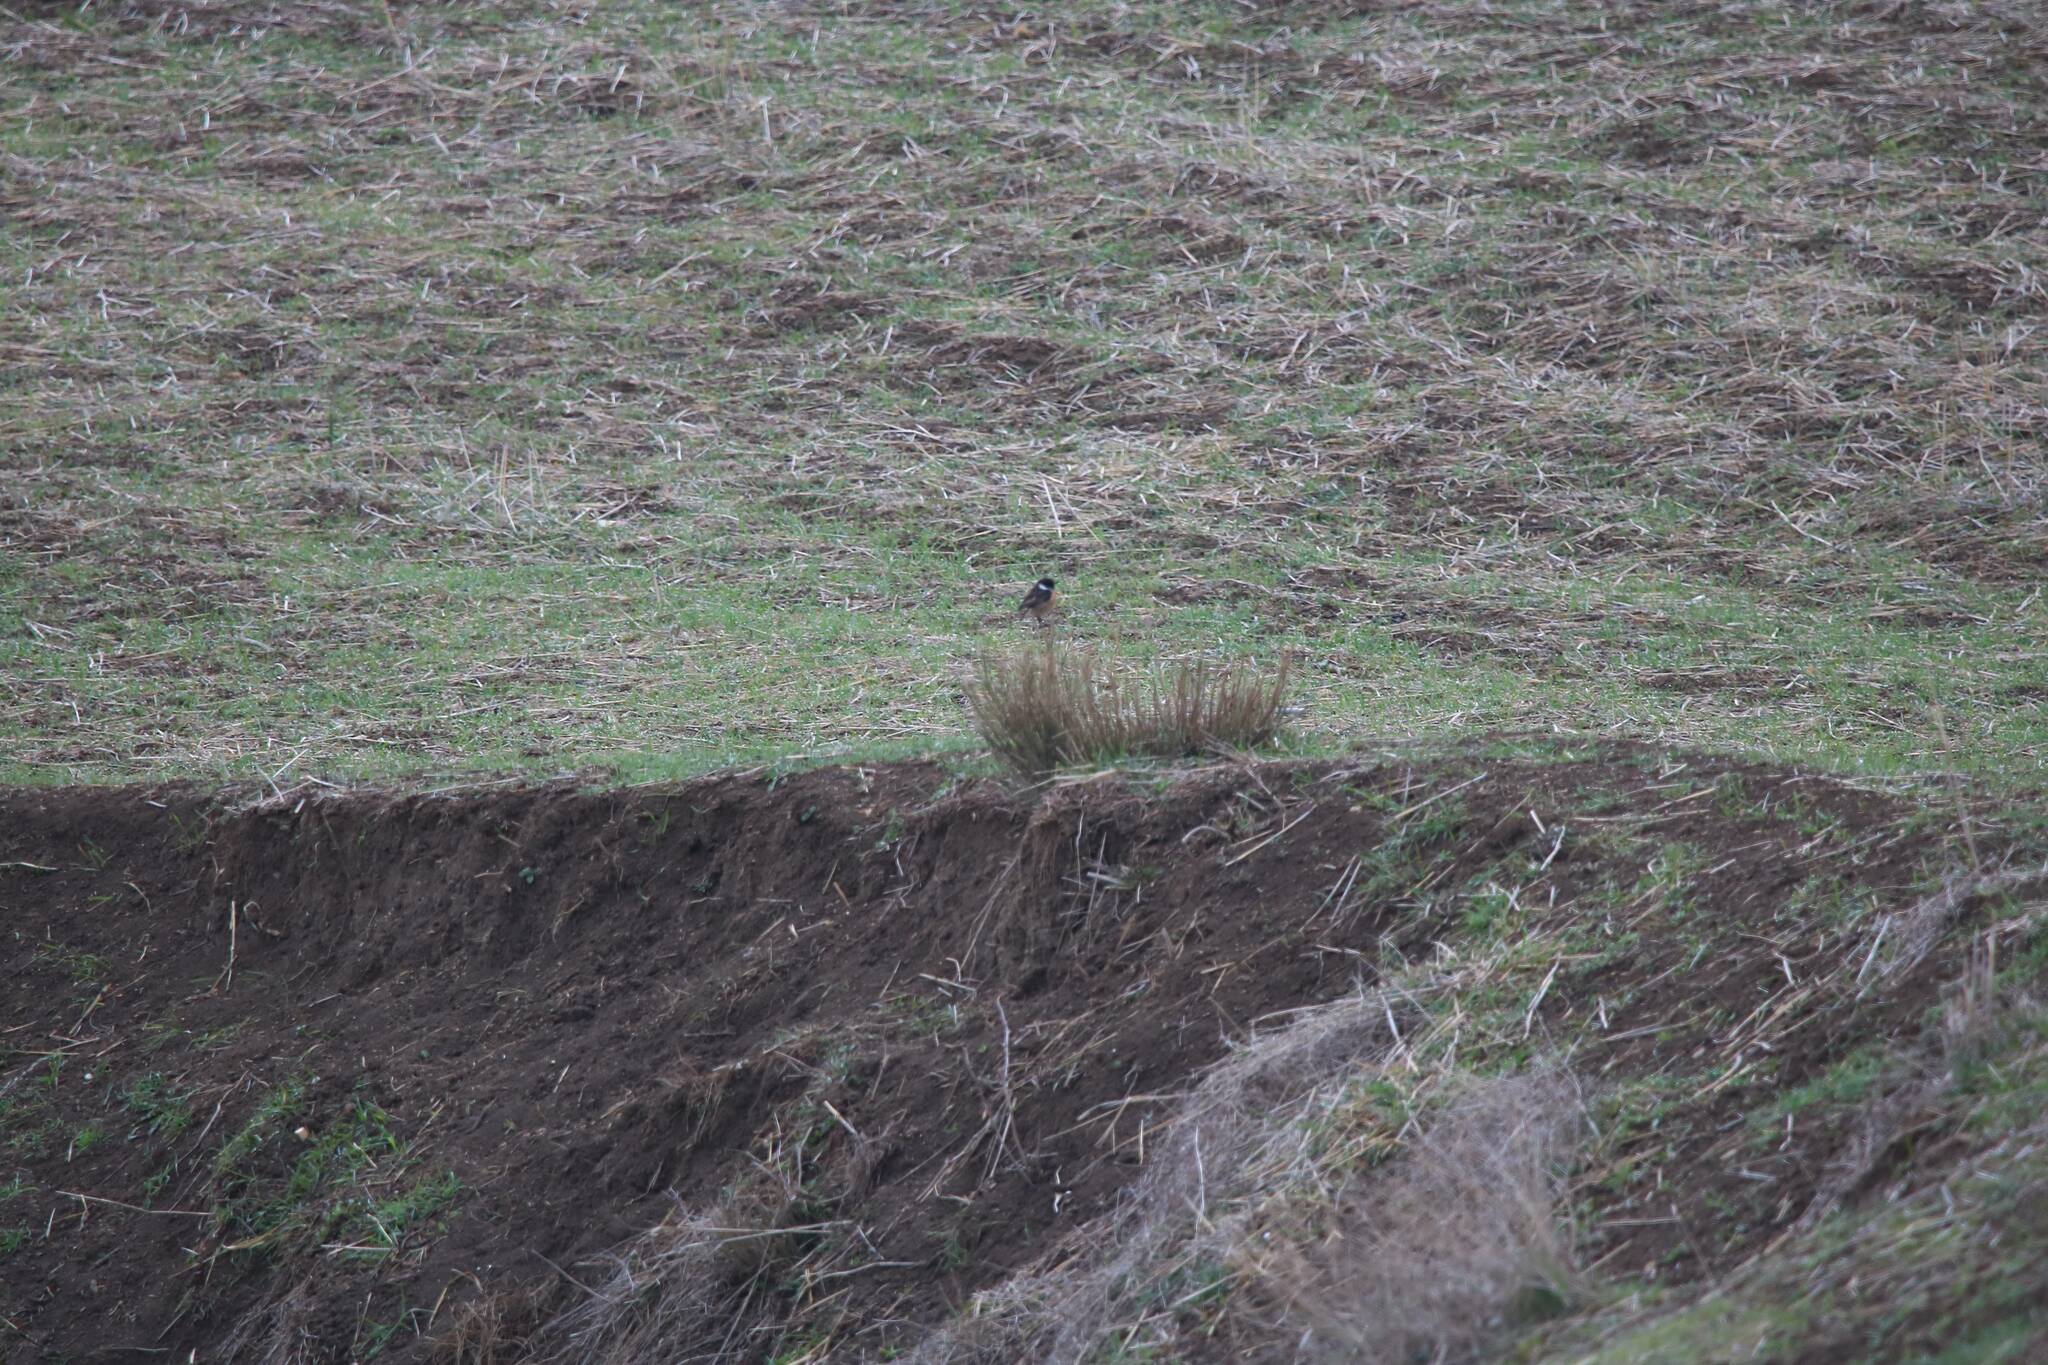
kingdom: Animalia
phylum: Chordata
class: Aves
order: Passeriformes
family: Muscicapidae
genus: Saxicola
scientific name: Saxicola rubicola
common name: European stonechat
